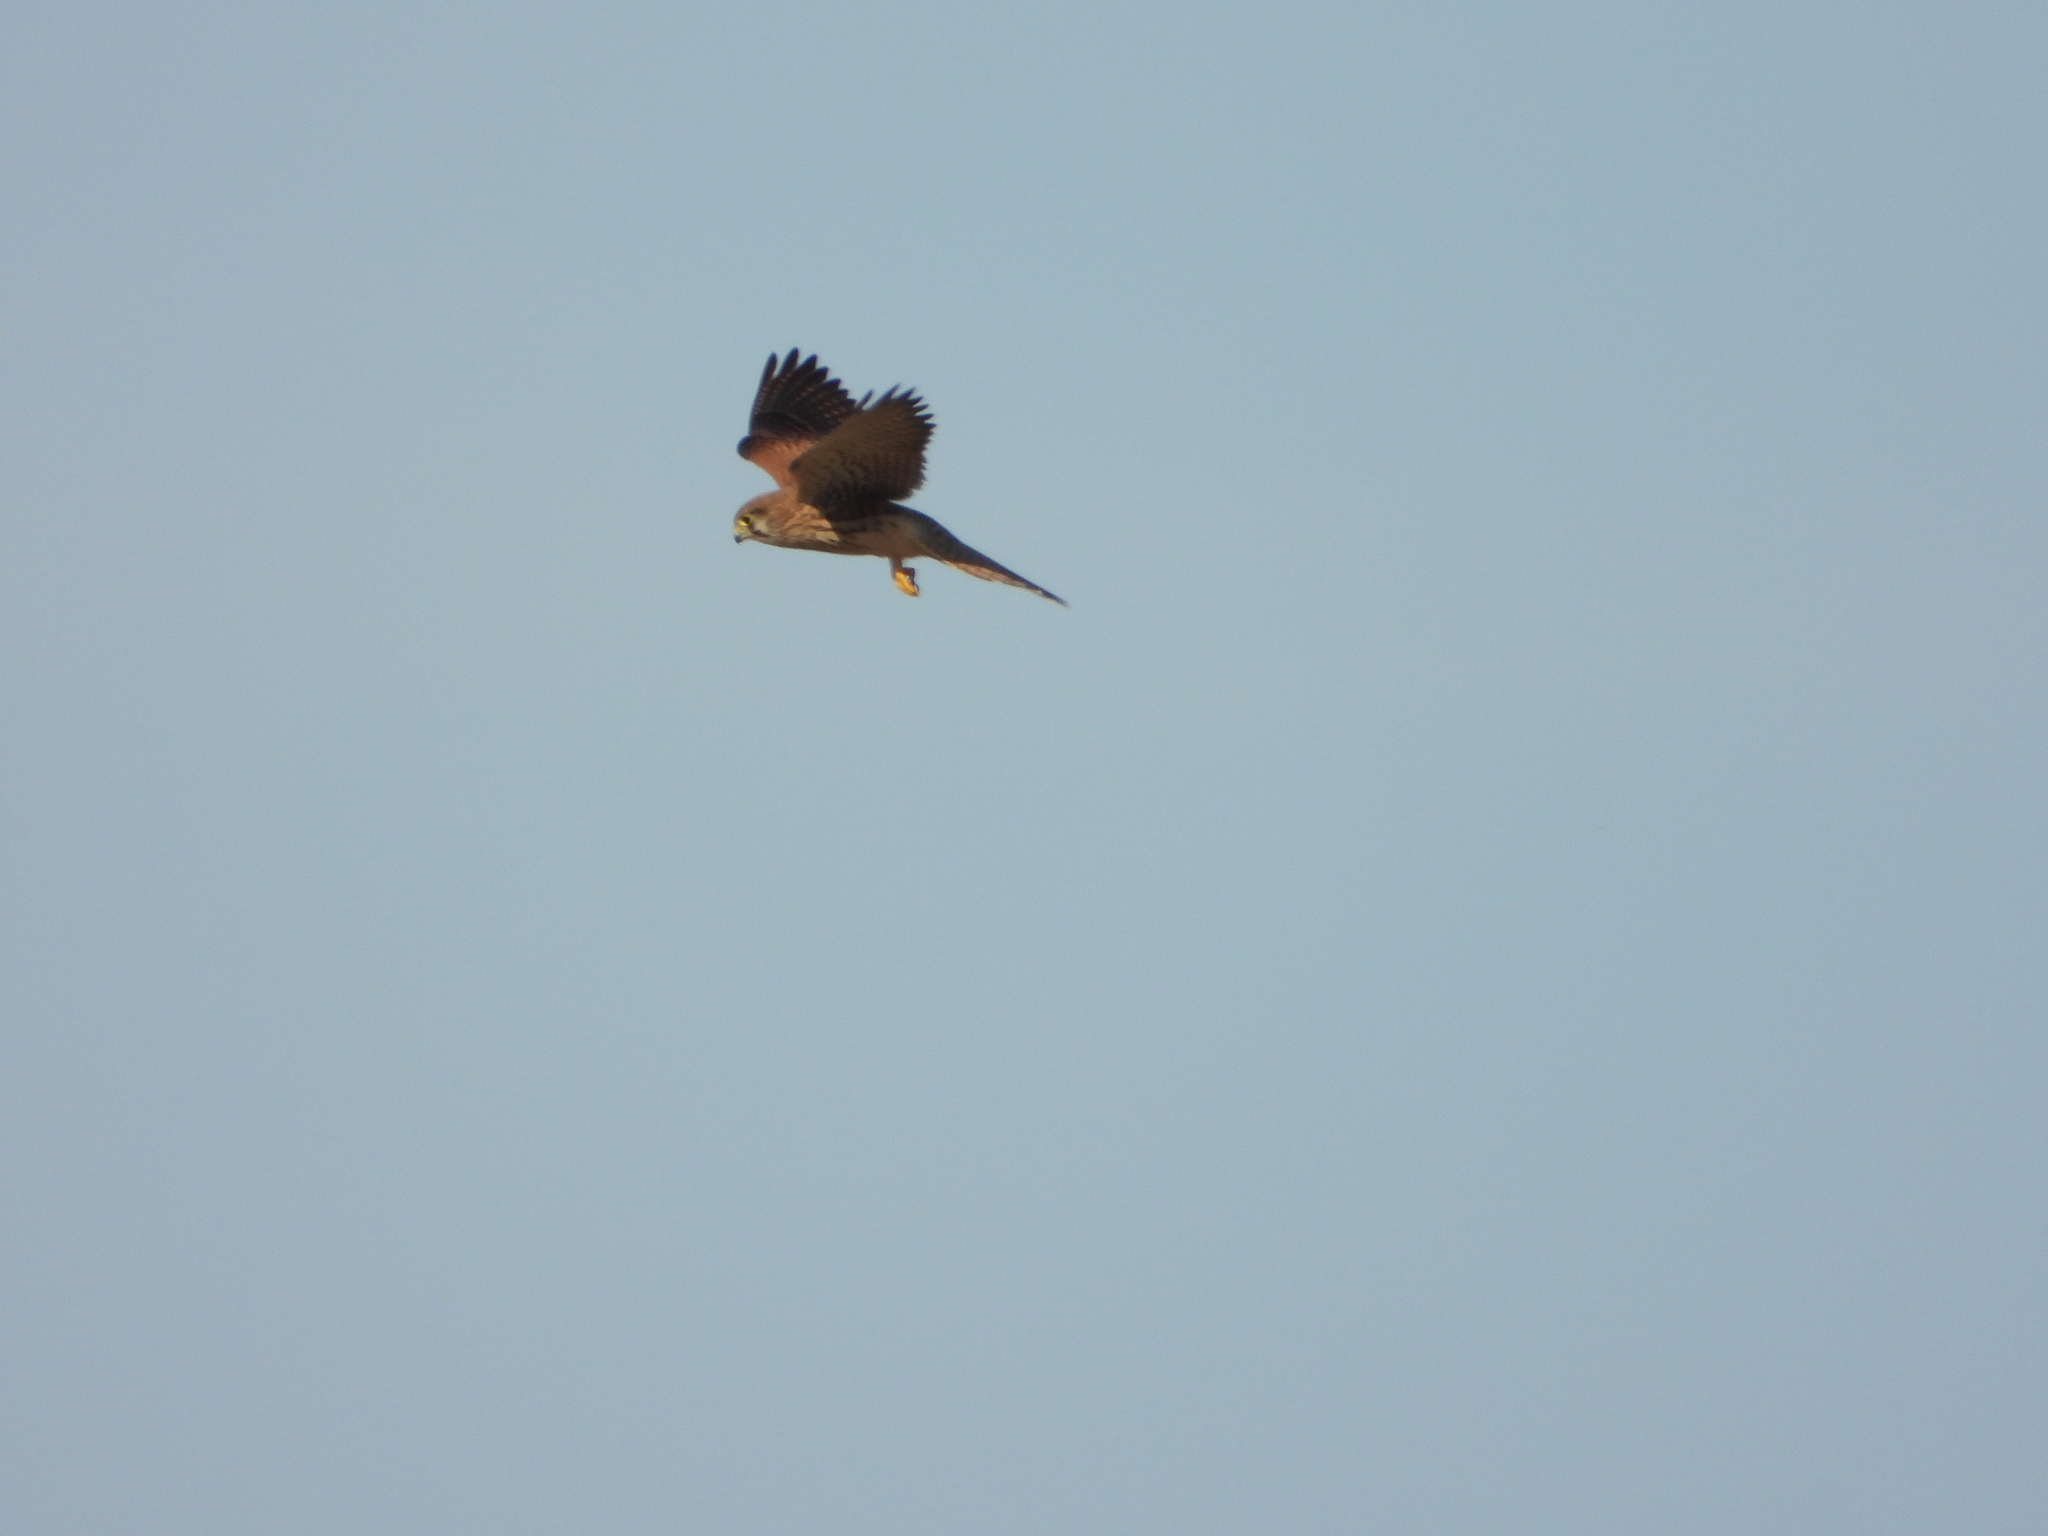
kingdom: Animalia
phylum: Chordata
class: Aves
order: Falconiformes
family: Falconidae
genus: Falco
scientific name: Falco tinnunculus
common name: Common kestrel
